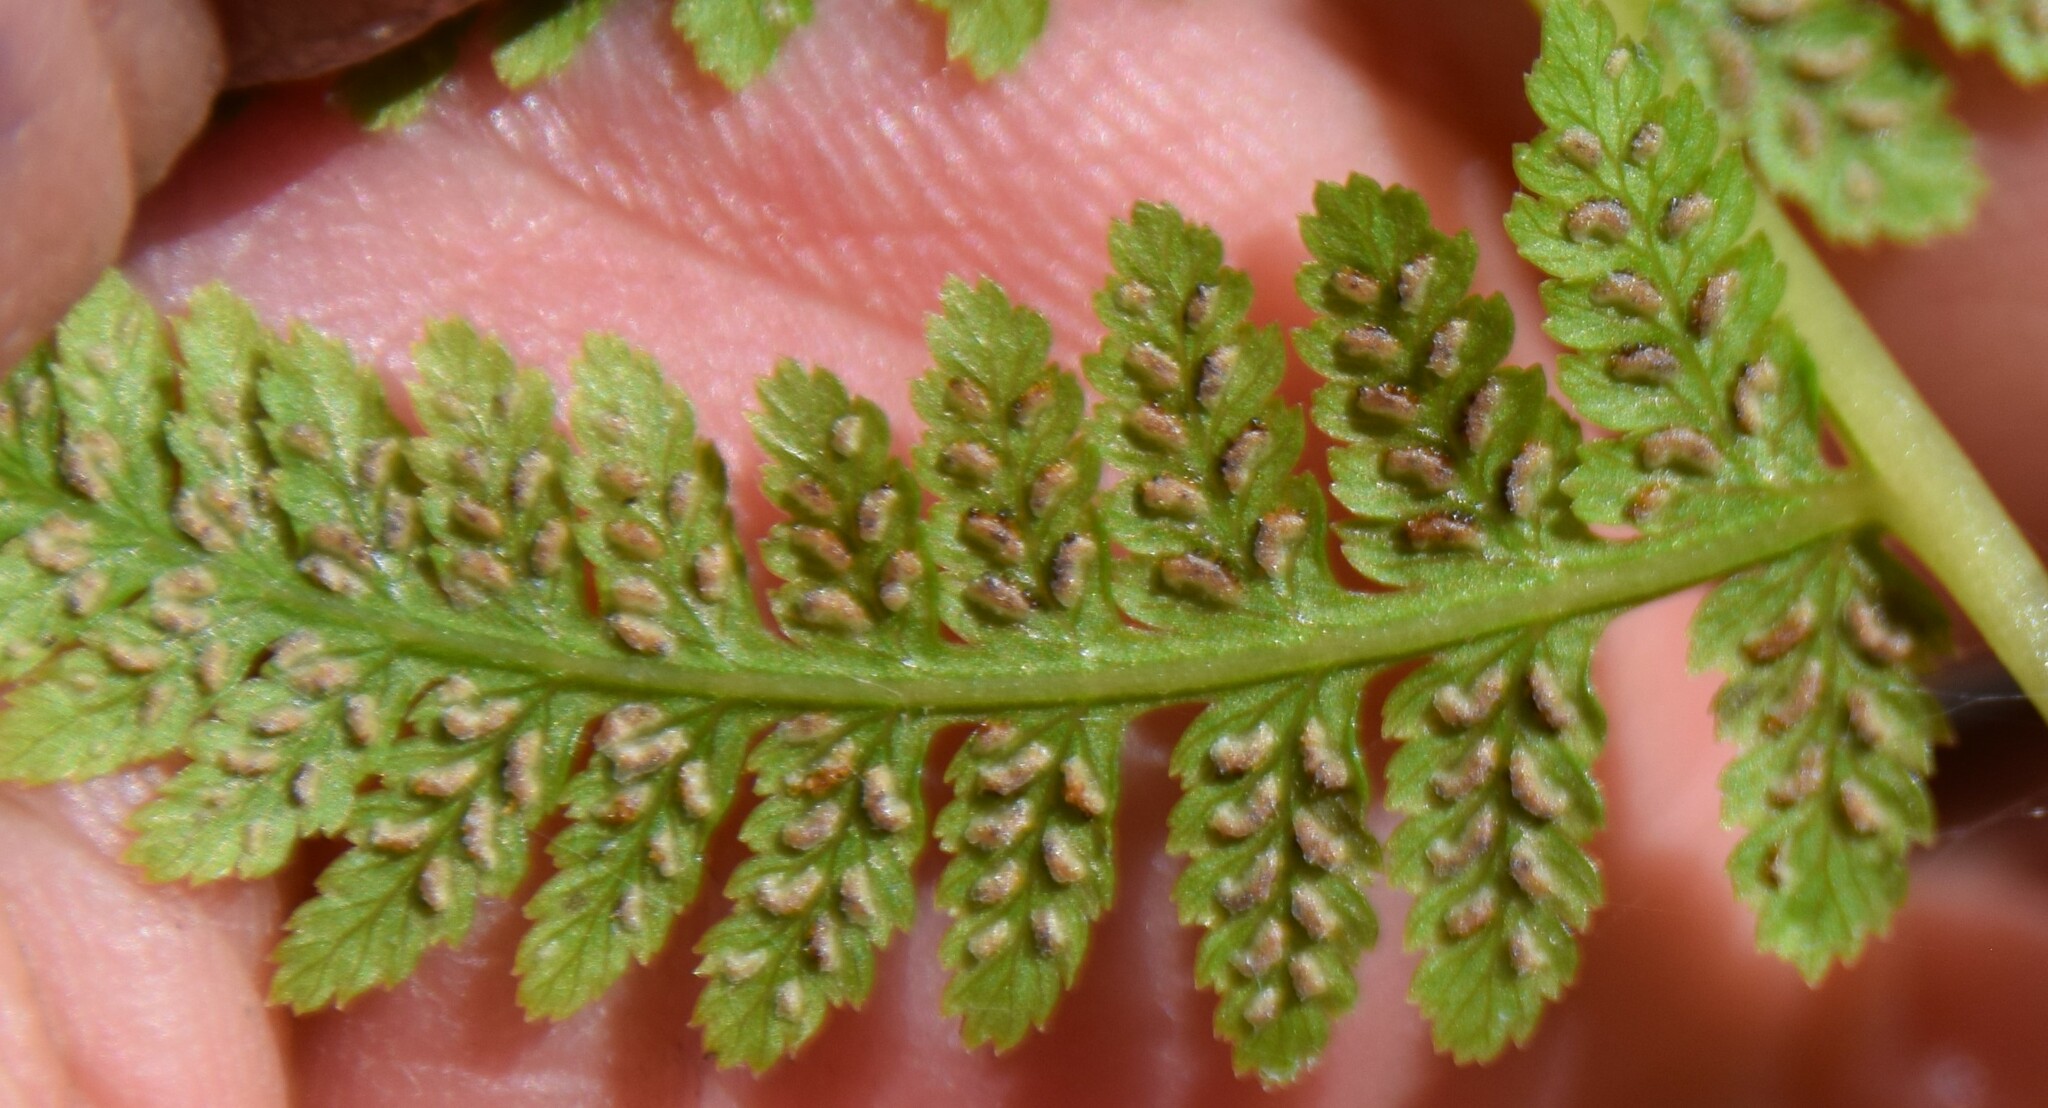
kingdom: Plantae
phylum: Tracheophyta
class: Polypodiopsida
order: Polypodiales
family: Athyriaceae
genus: Athyrium
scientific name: Athyrium angustum
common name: Northern lady fern
